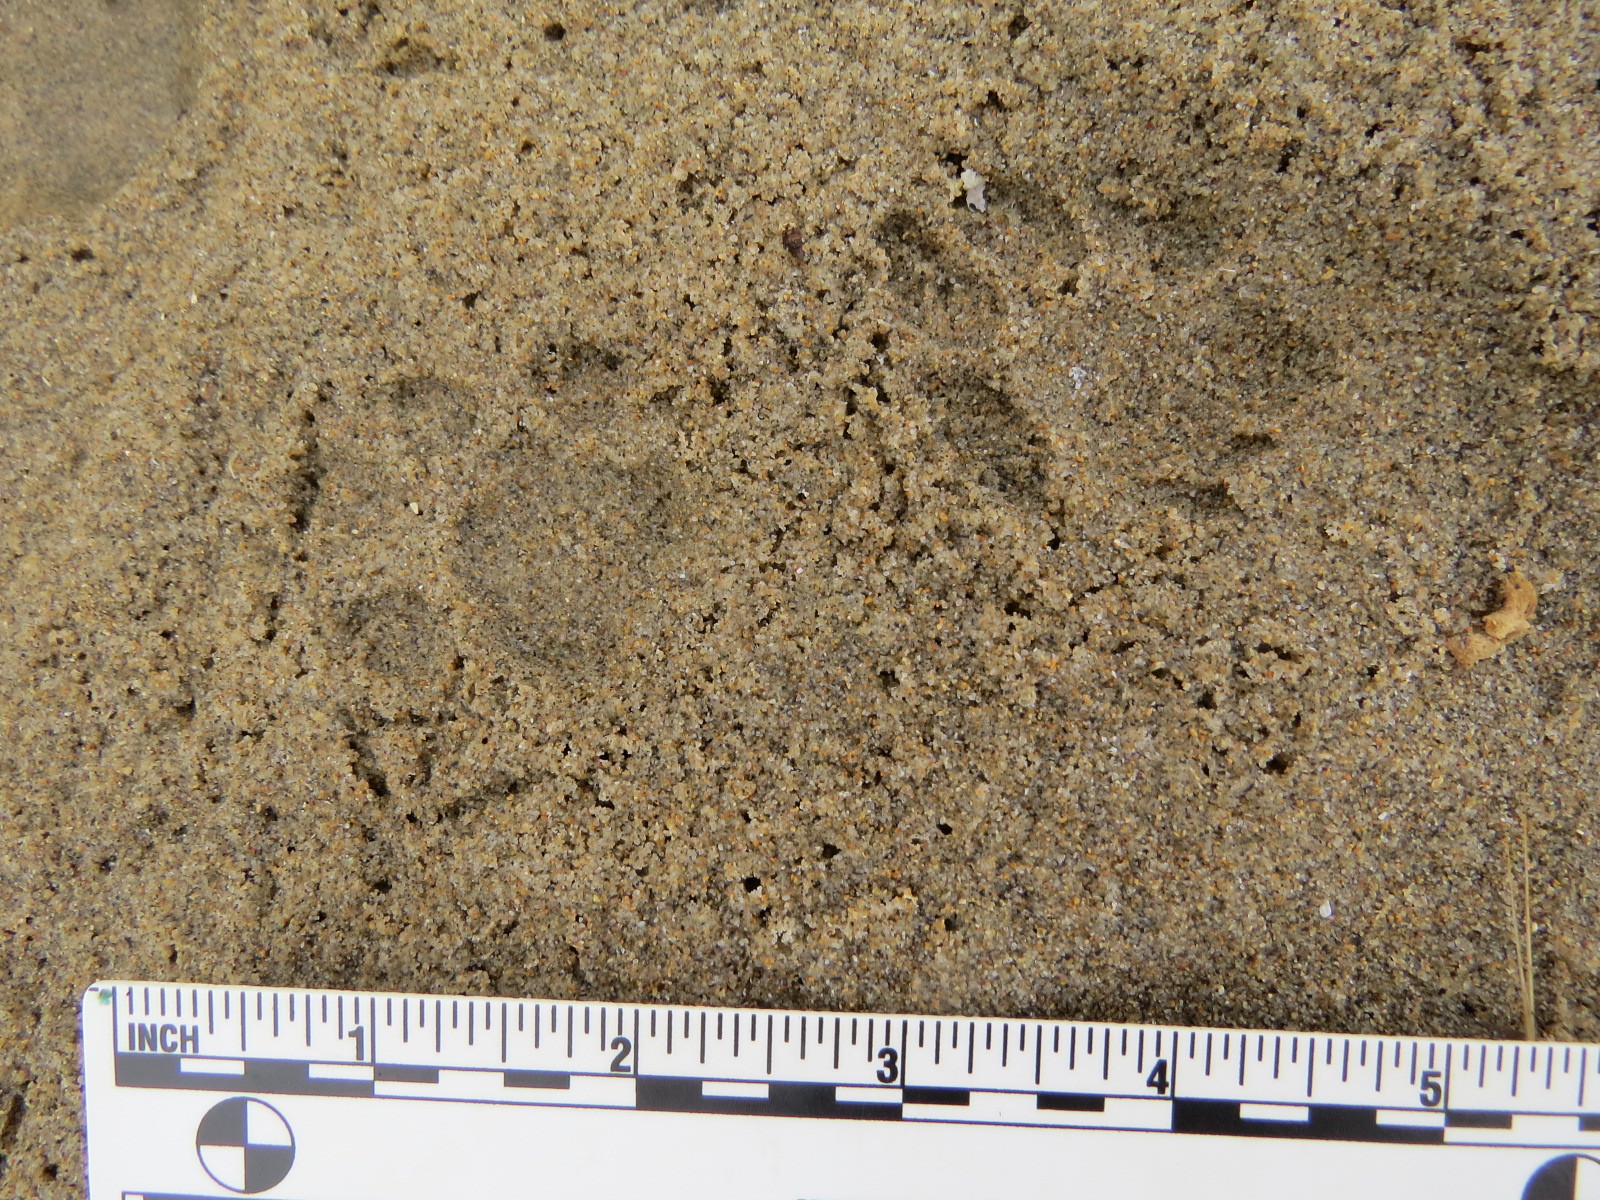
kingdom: Animalia
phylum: Chordata
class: Mammalia
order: Carnivora
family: Felidae
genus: Lynx
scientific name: Lynx rufus
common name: Bobcat
